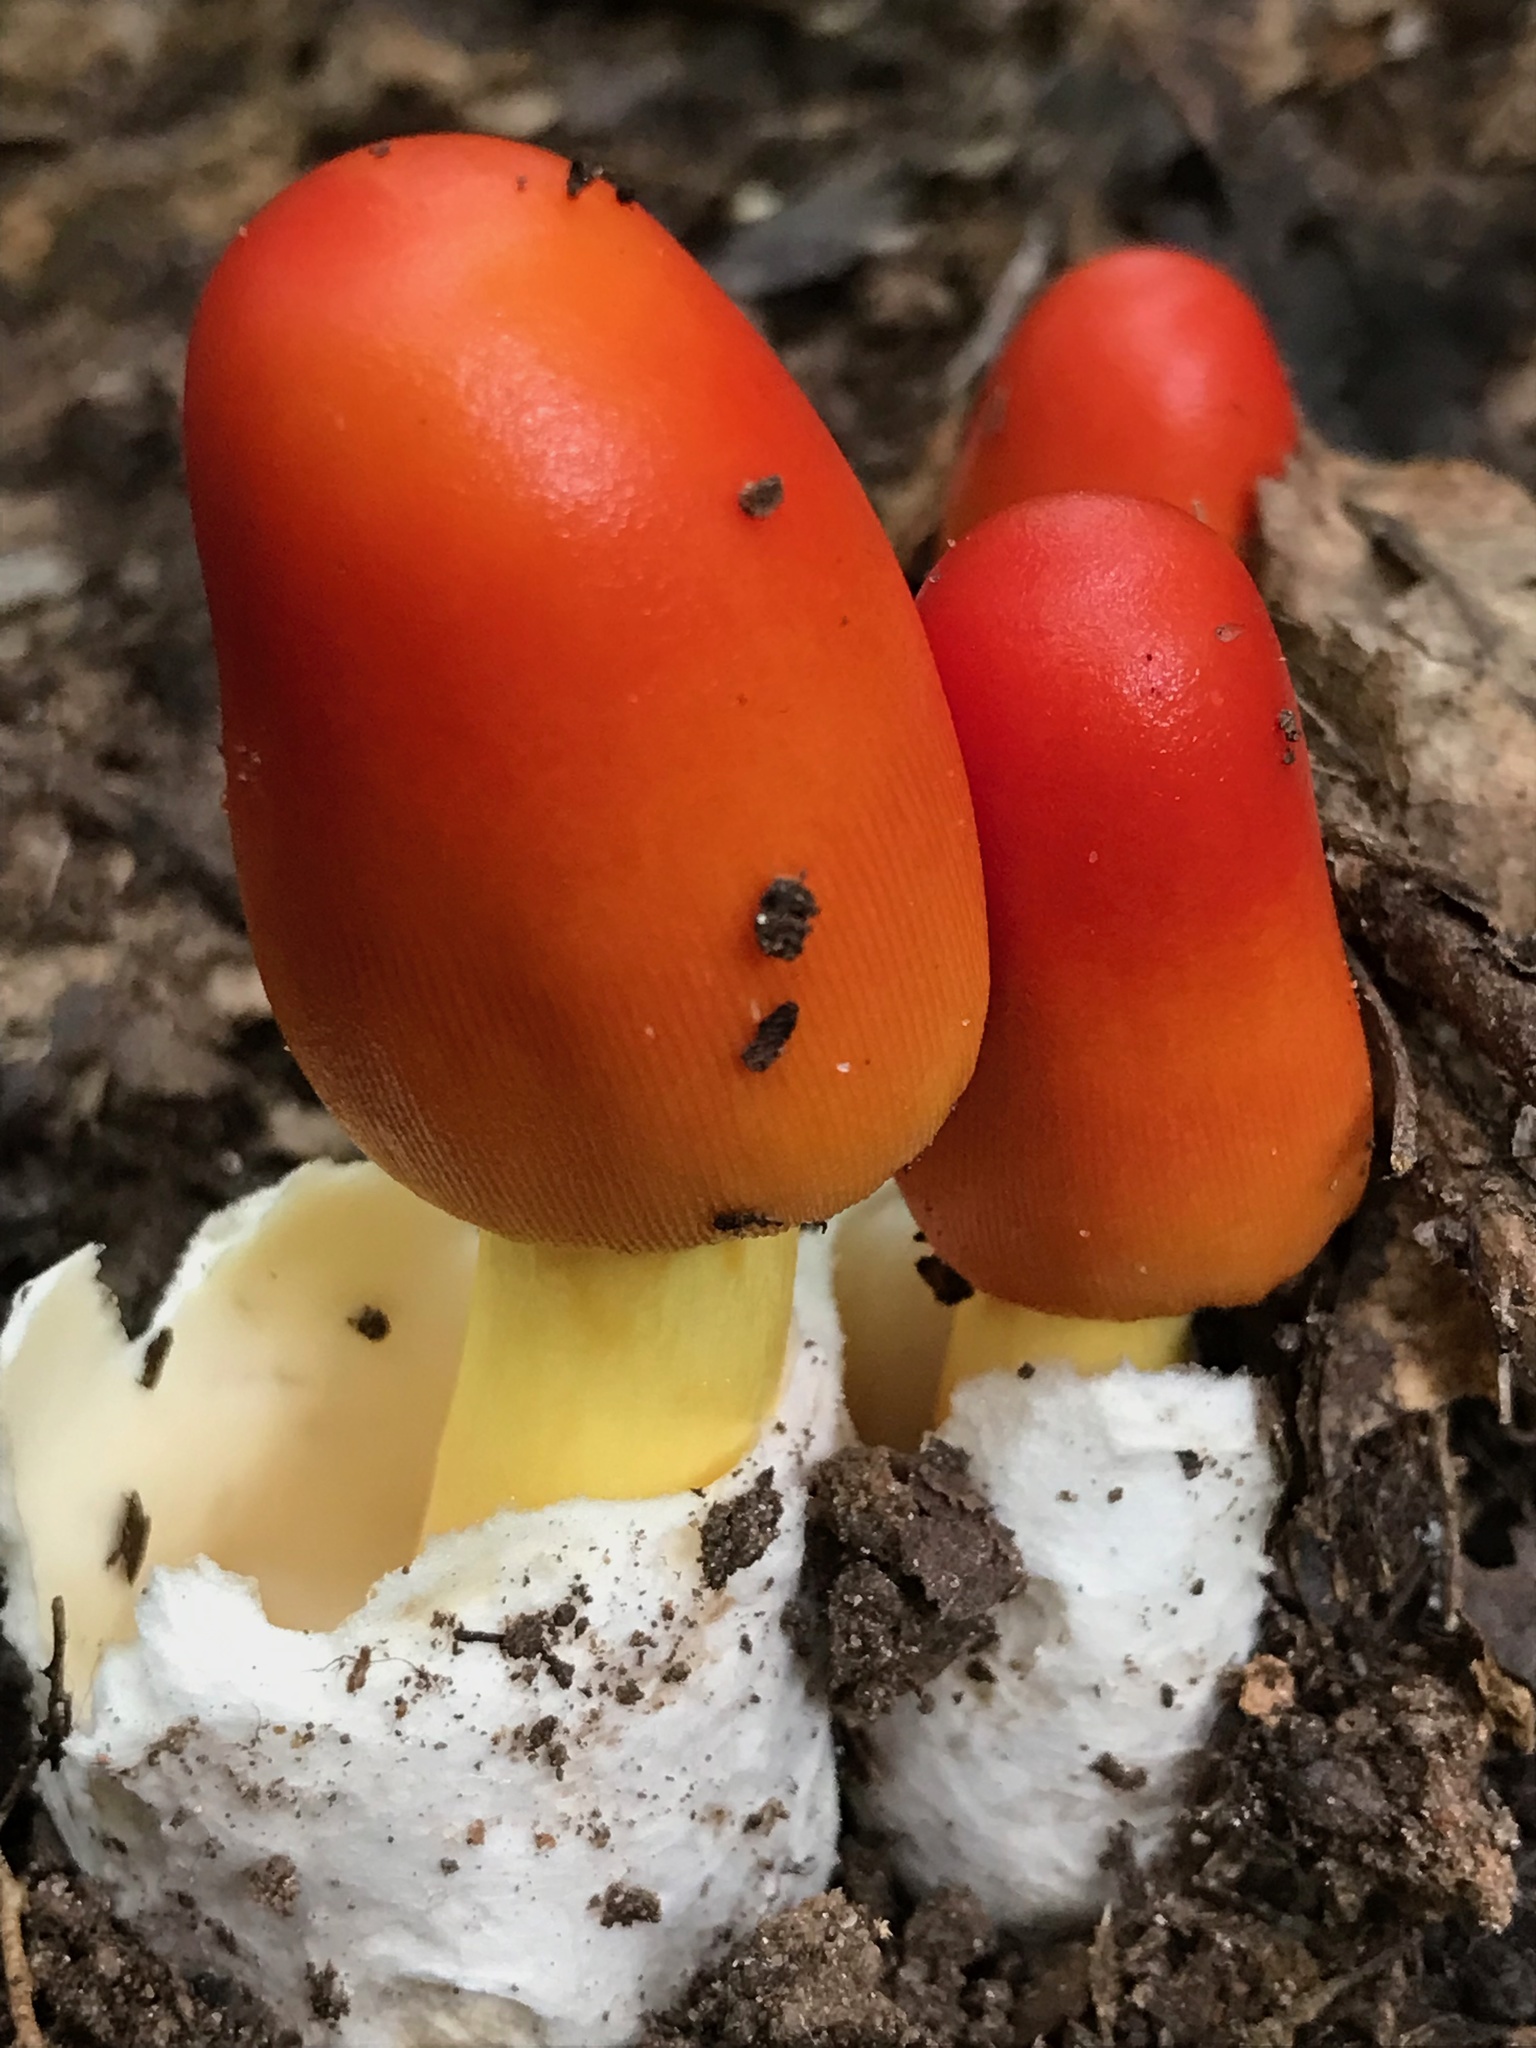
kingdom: Fungi
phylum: Basidiomycota
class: Agaricomycetes
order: Agaricales
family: Amanitaceae
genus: Amanita
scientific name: Amanita jacksonii
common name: Jackson's slender caesar
